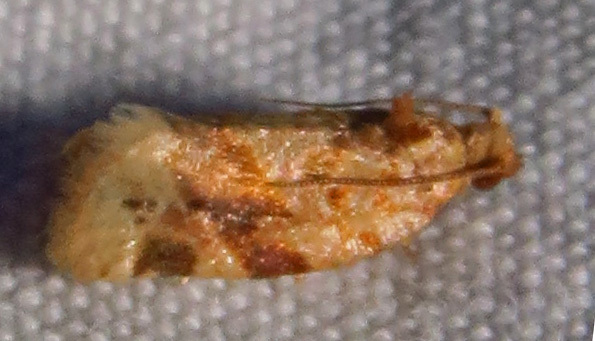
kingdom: Animalia
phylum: Arthropoda
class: Insecta
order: Lepidoptera
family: Tortricidae
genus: Argyrotaenia
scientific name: Argyrotaenia velutinana
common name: Red-banded leafroller moth
